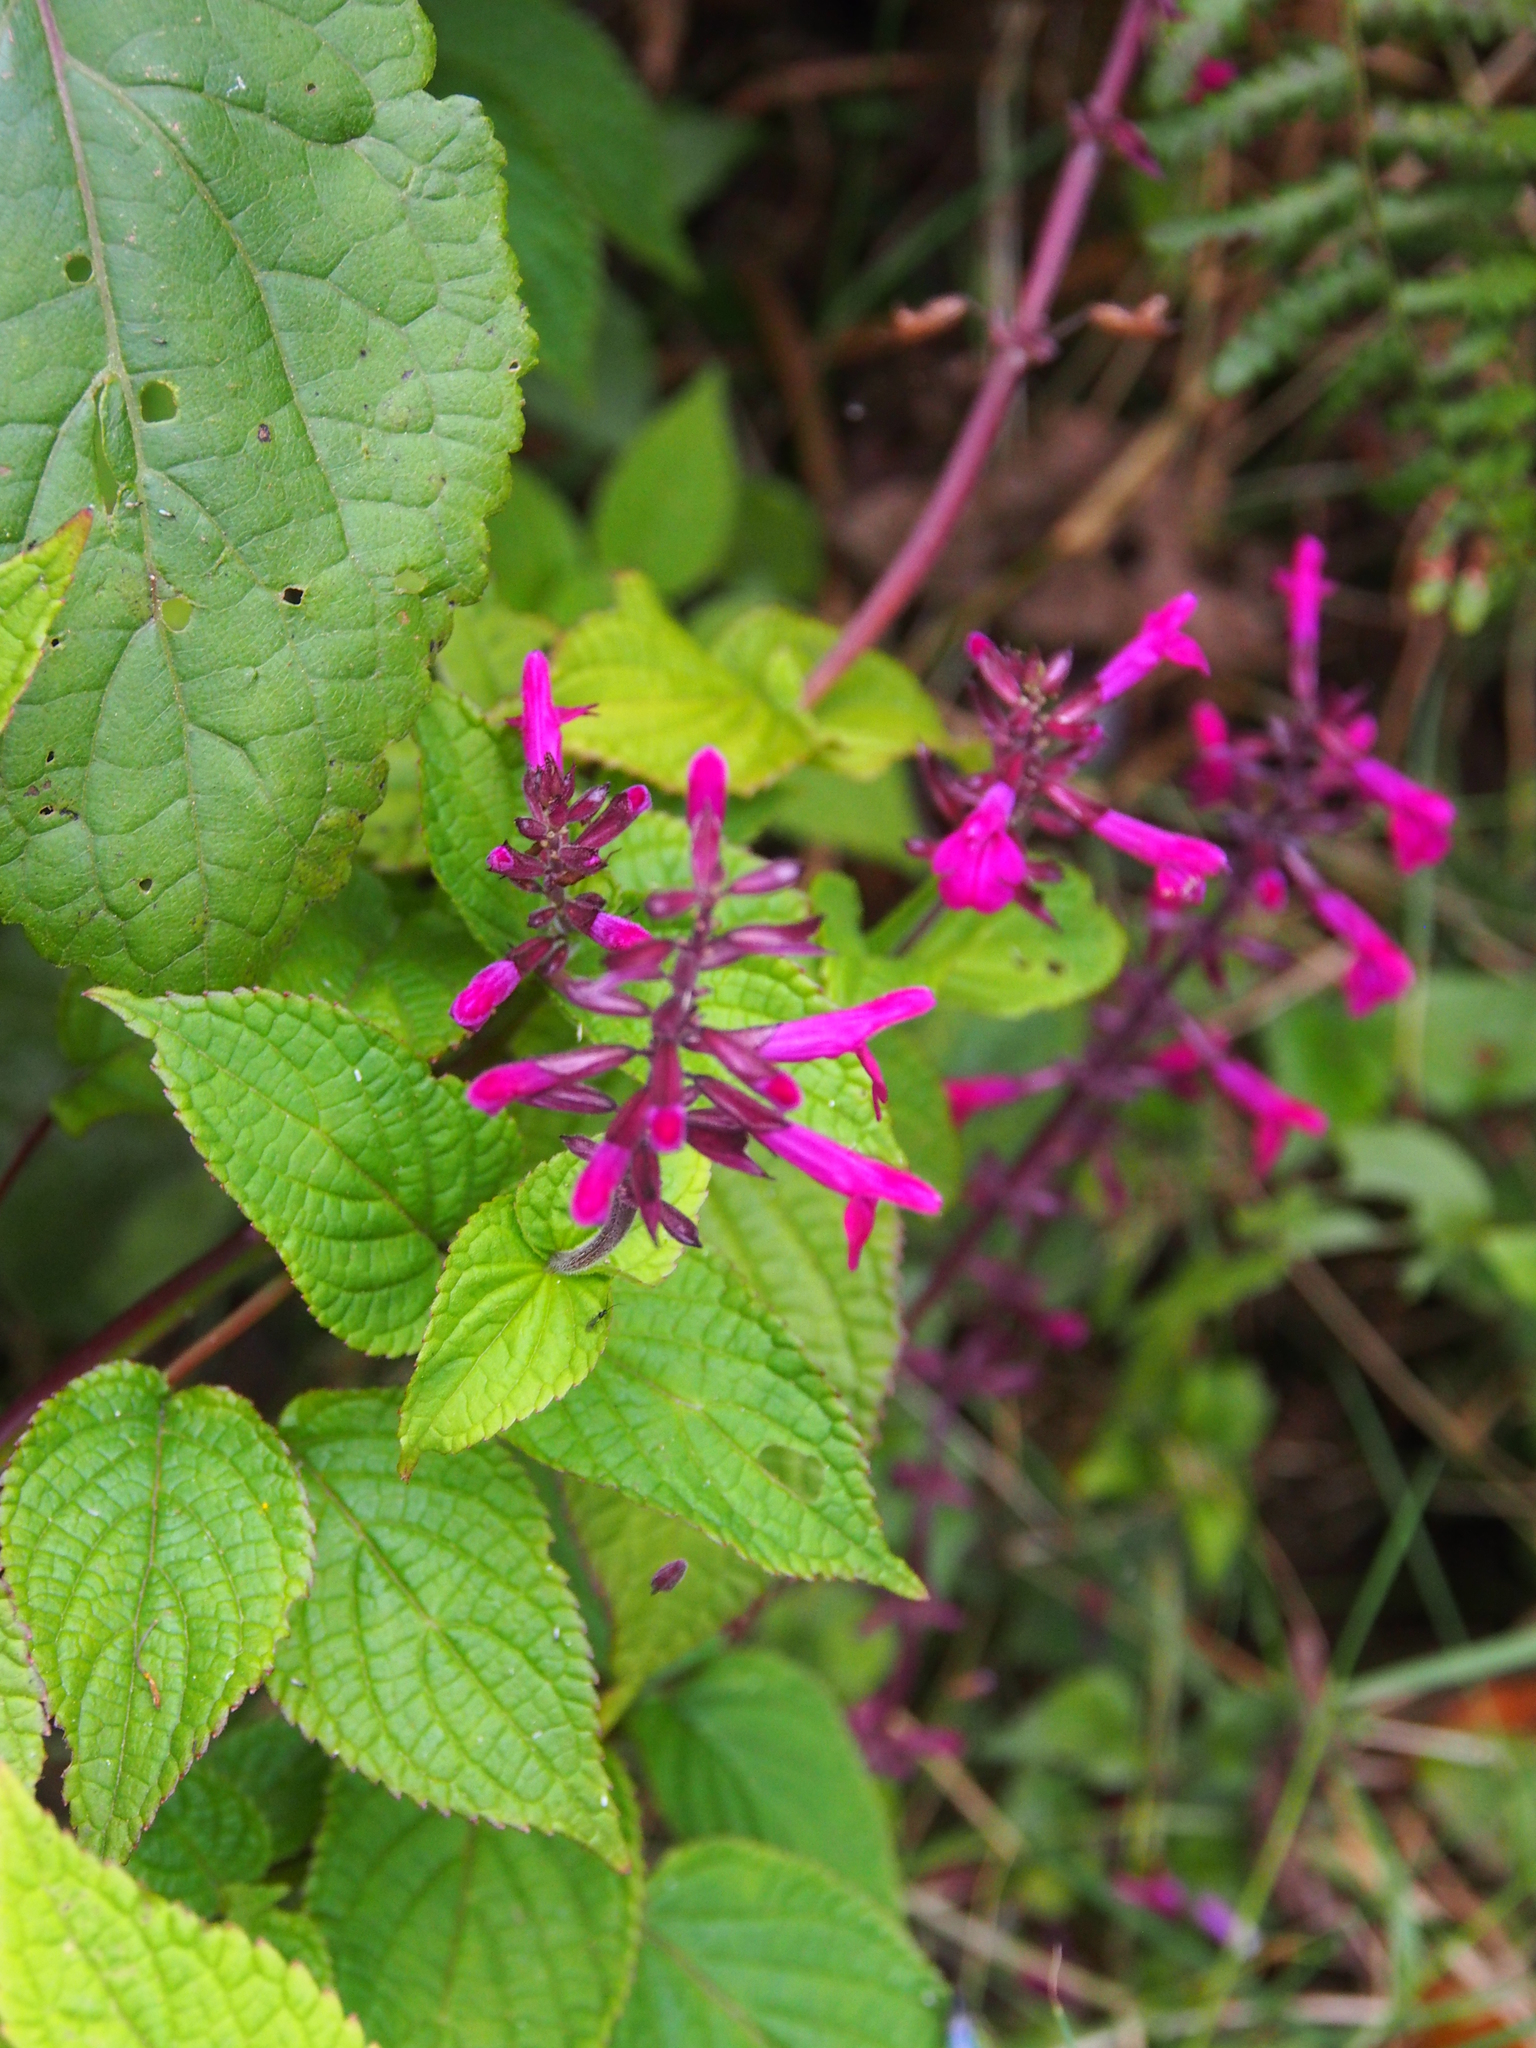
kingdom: Plantae
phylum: Tracheophyta
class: Magnoliopsida
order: Lamiales
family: Lamiaceae
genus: Salvia
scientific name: Salvia carnea
